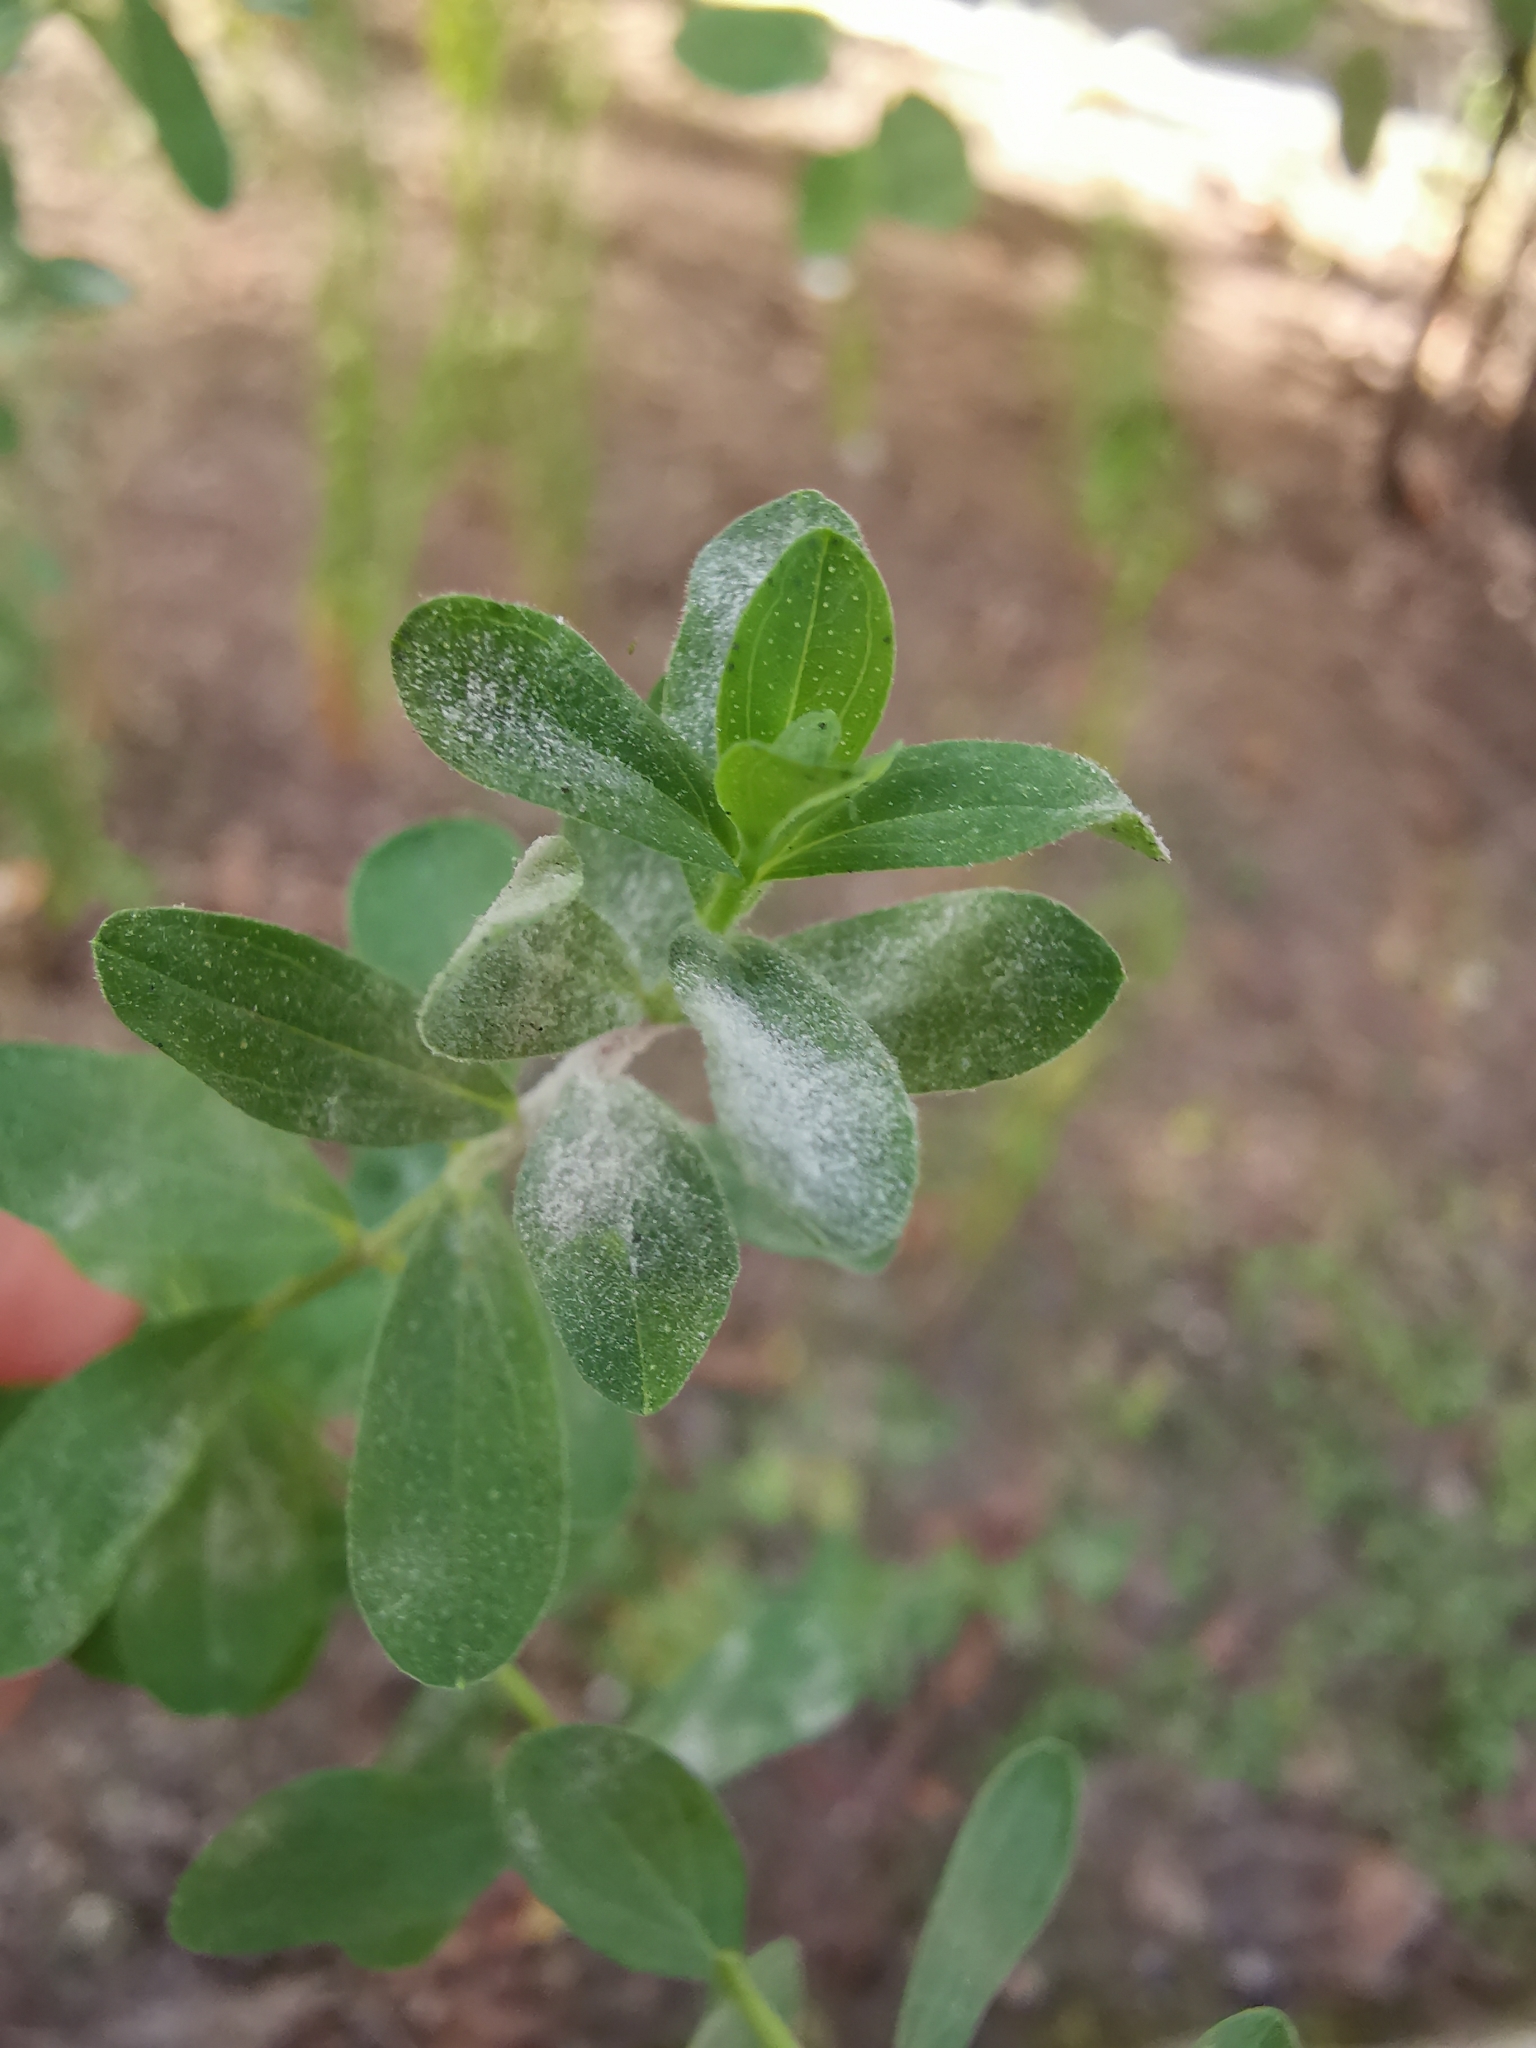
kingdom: Fungi
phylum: Ascomycota
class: Leotiomycetes
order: Helotiales
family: Erysiphaceae
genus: Erysiphe
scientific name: Erysiphe hyperici
